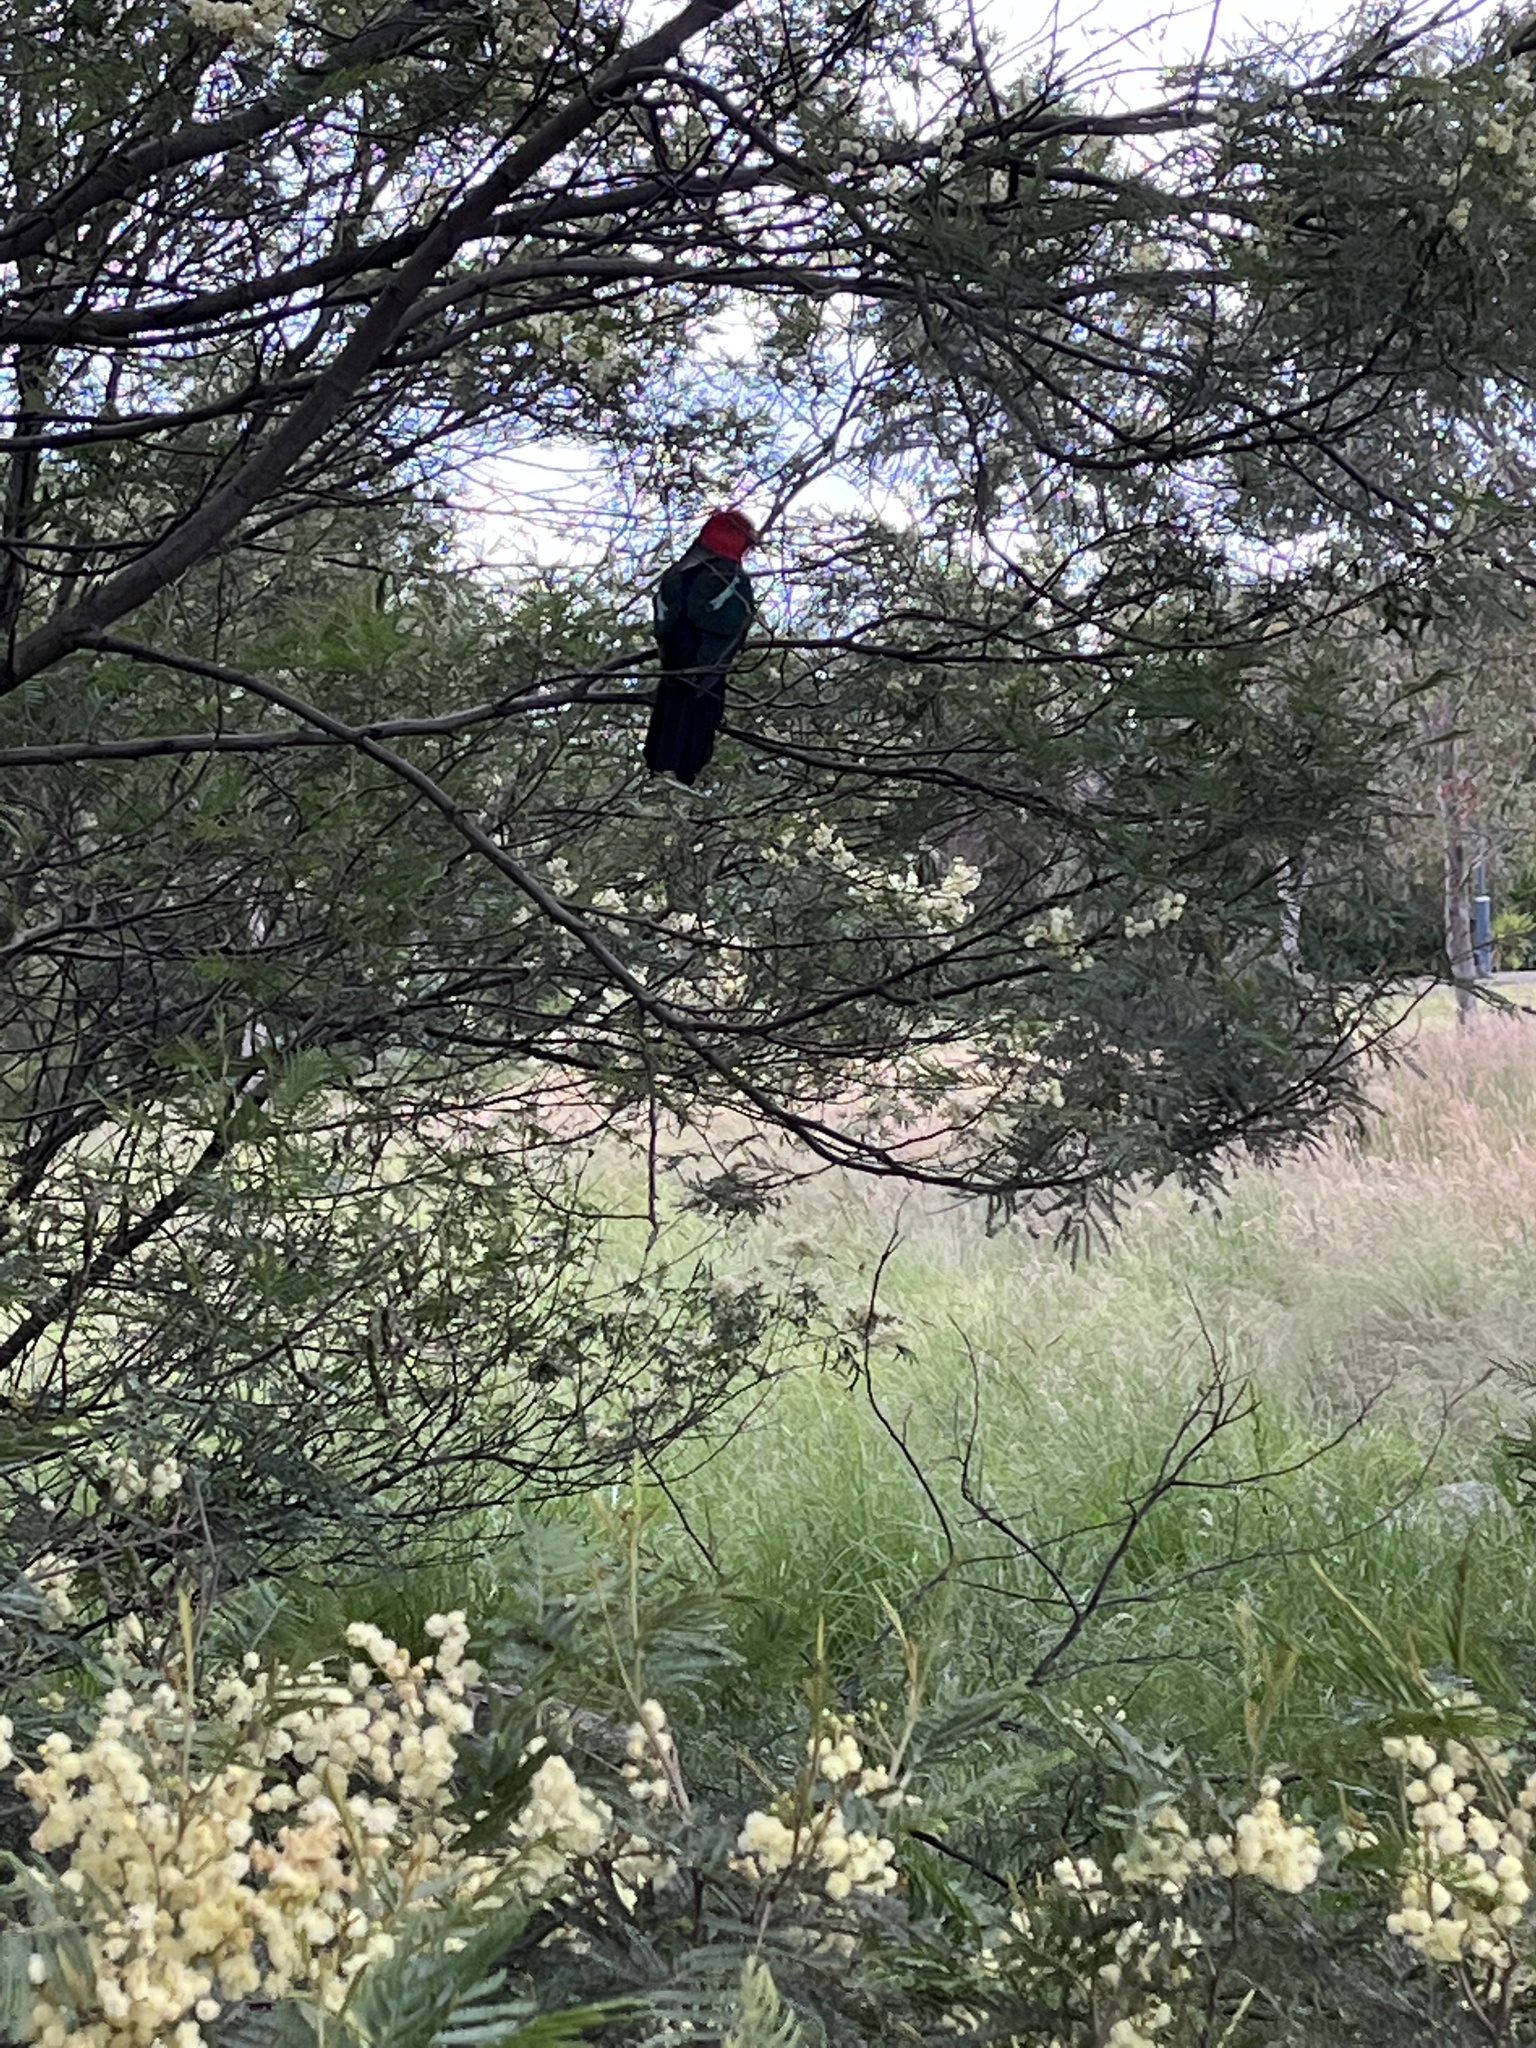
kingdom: Animalia
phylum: Chordata
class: Aves
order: Psittaciformes
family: Psittacidae
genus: Alisterus
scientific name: Alisterus scapularis
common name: Australian king parrot
